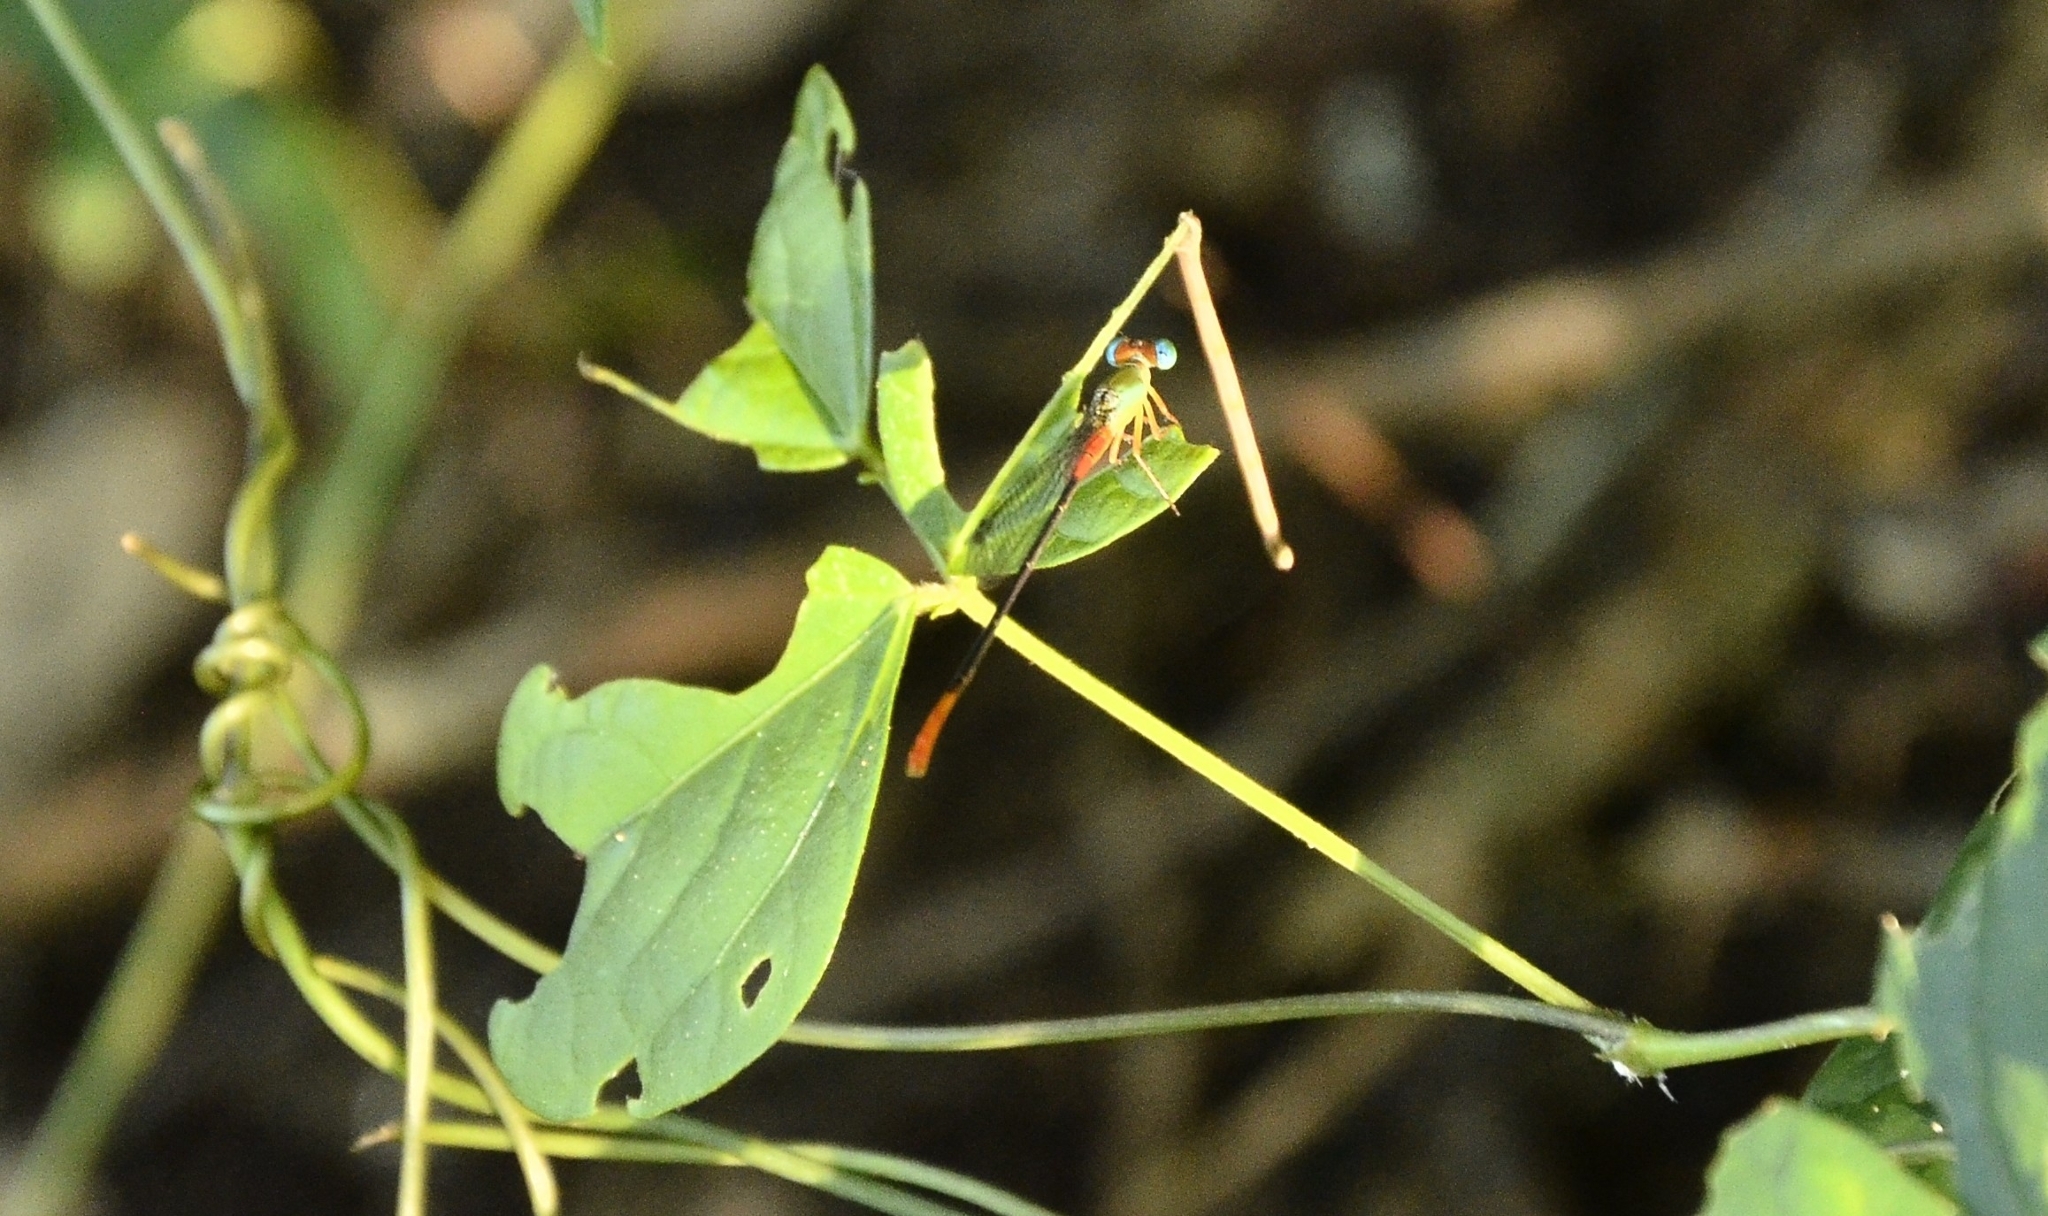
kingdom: Animalia
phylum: Arthropoda
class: Insecta
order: Odonata
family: Coenagrionidae
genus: Ceriagrion
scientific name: Ceriagrion cerinorubellum
